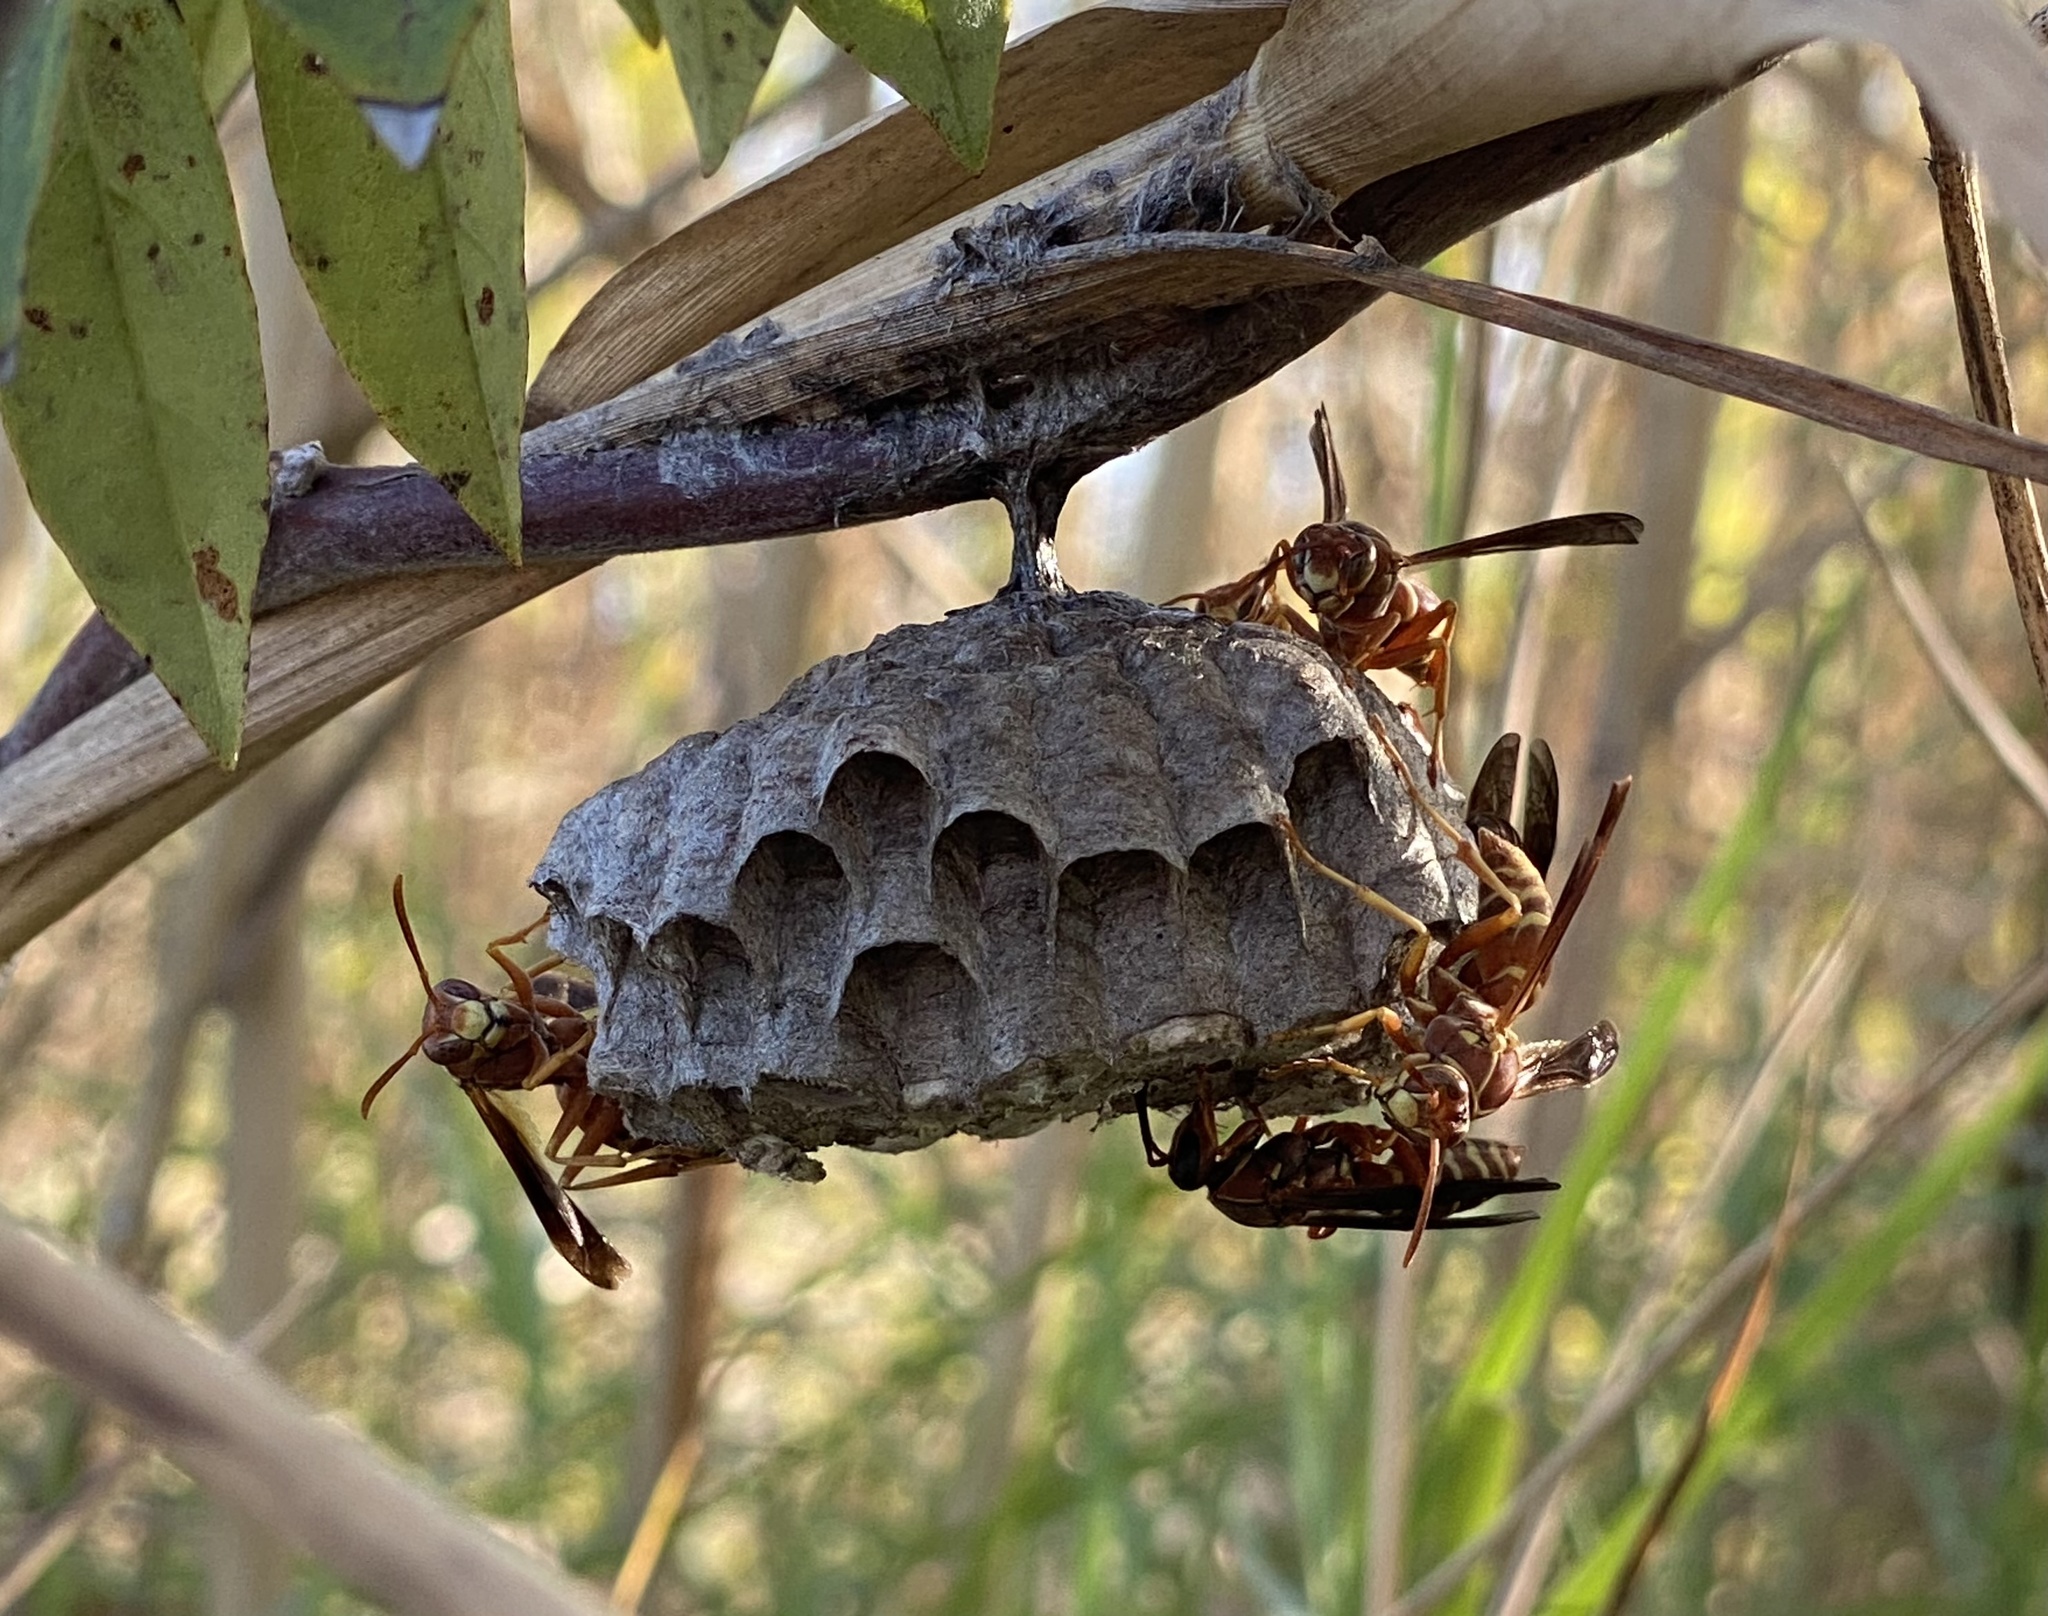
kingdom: Animalia
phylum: Arthropoda
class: Insecta
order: Hymenoptera
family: Eumenidae
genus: Polistes
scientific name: Polistes bellicosus
